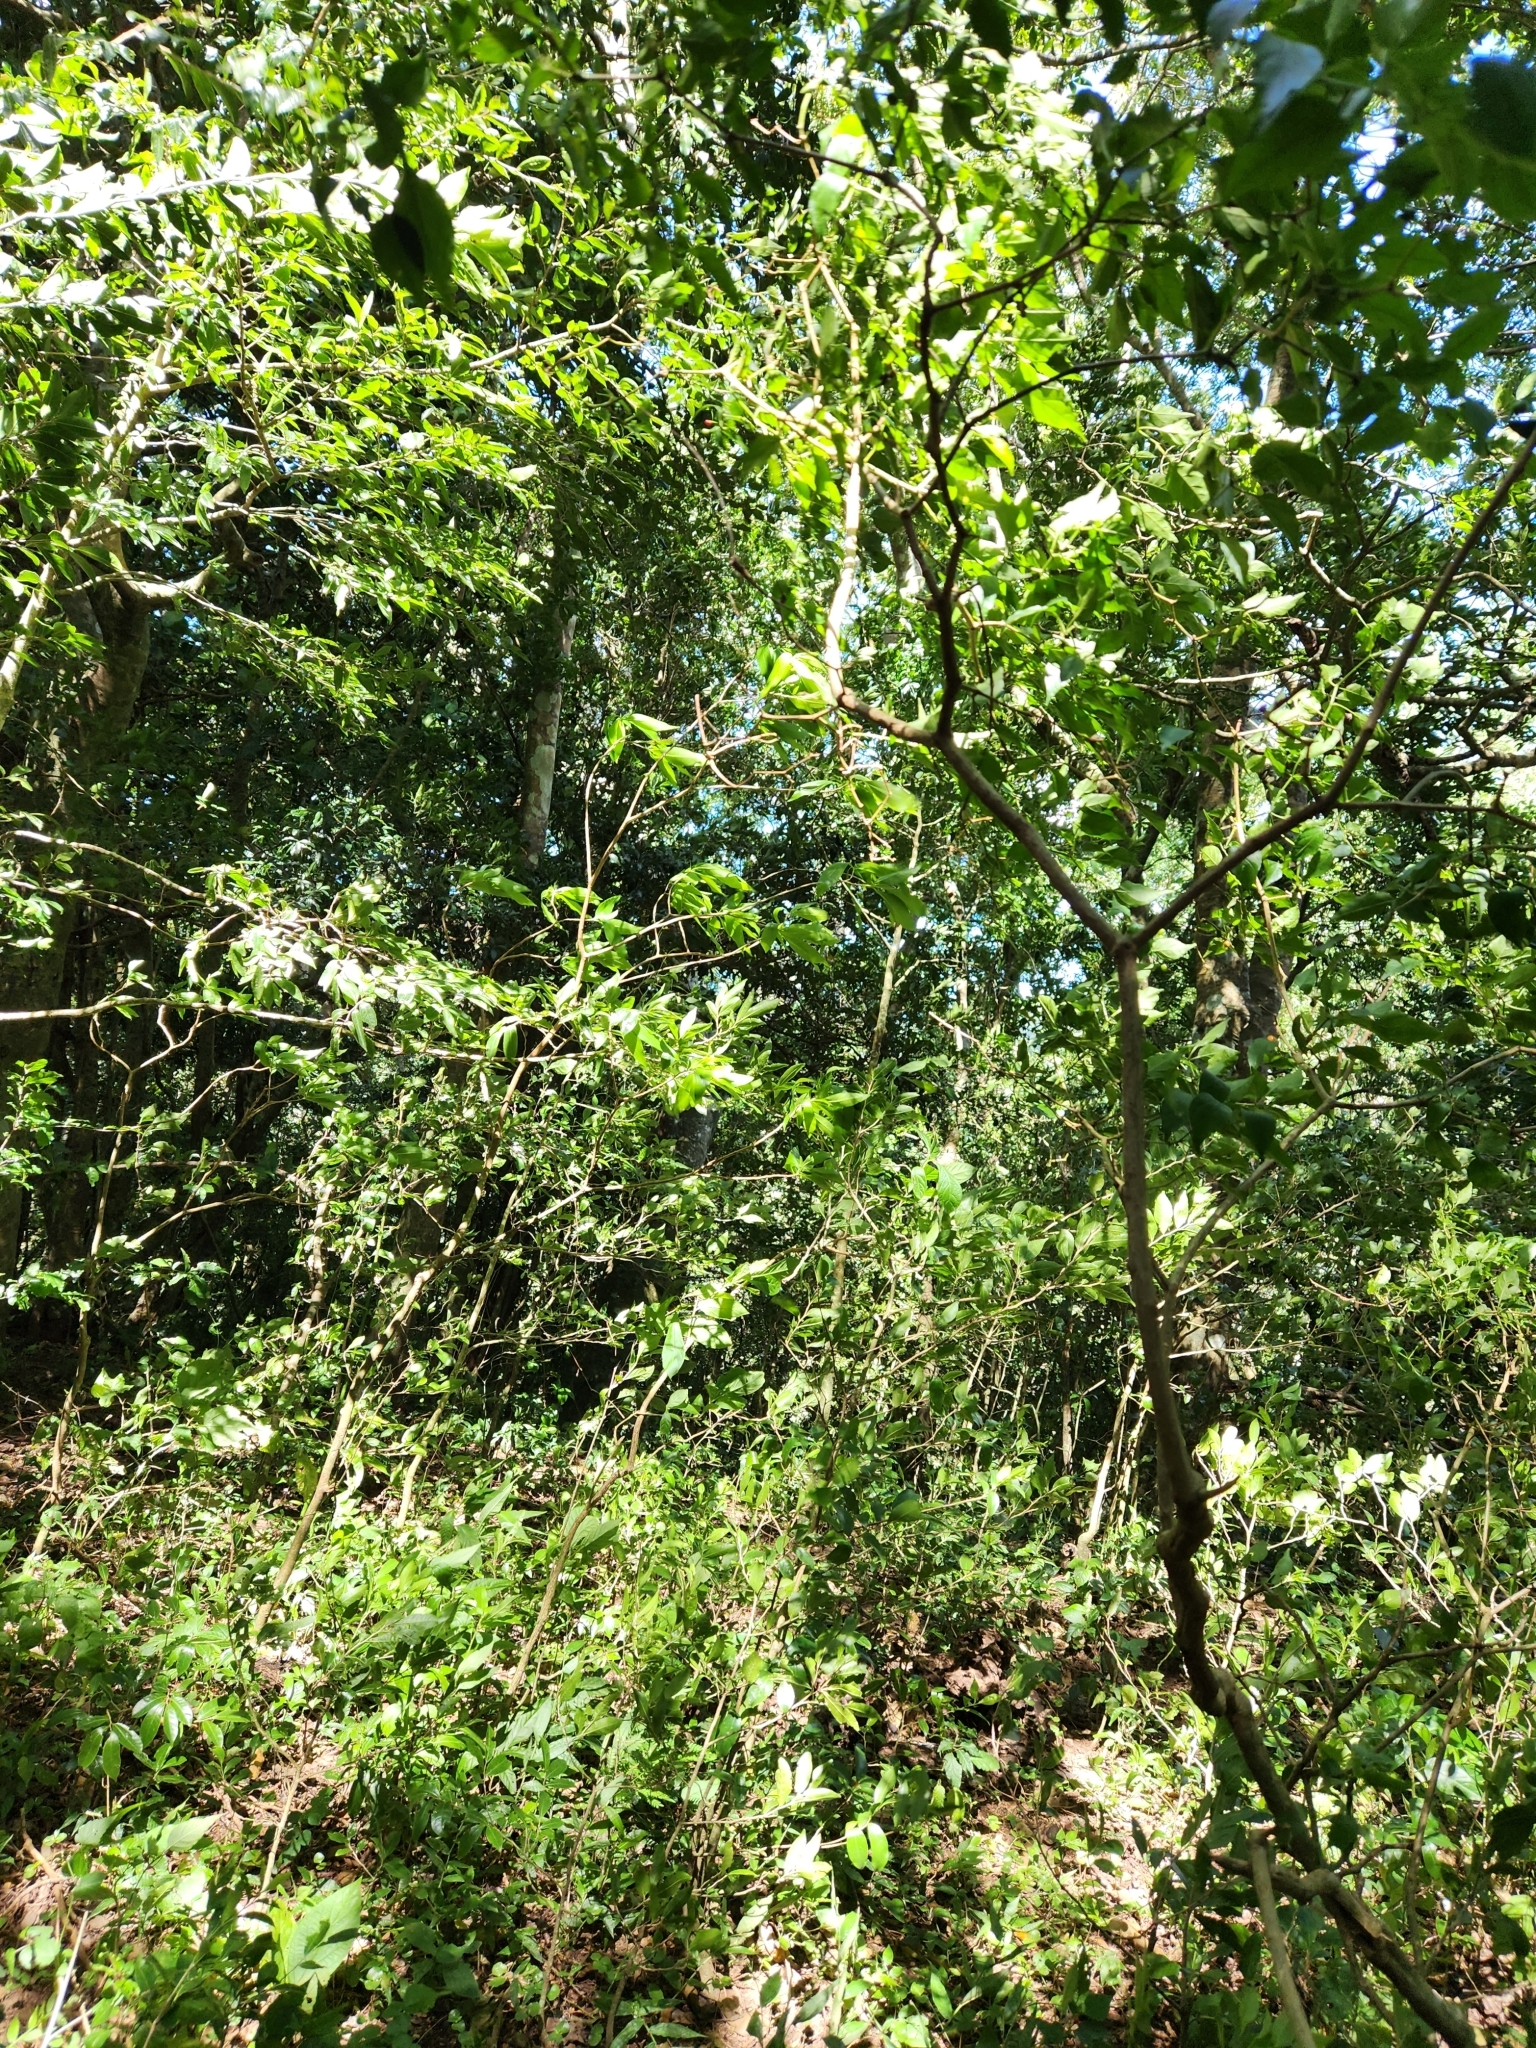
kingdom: Plantae
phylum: Tracheophyta
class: Magnoliopsida
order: Solanales
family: Solanaceae
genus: Capsicum
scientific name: Capsicum annuum
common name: Sweet pepper
